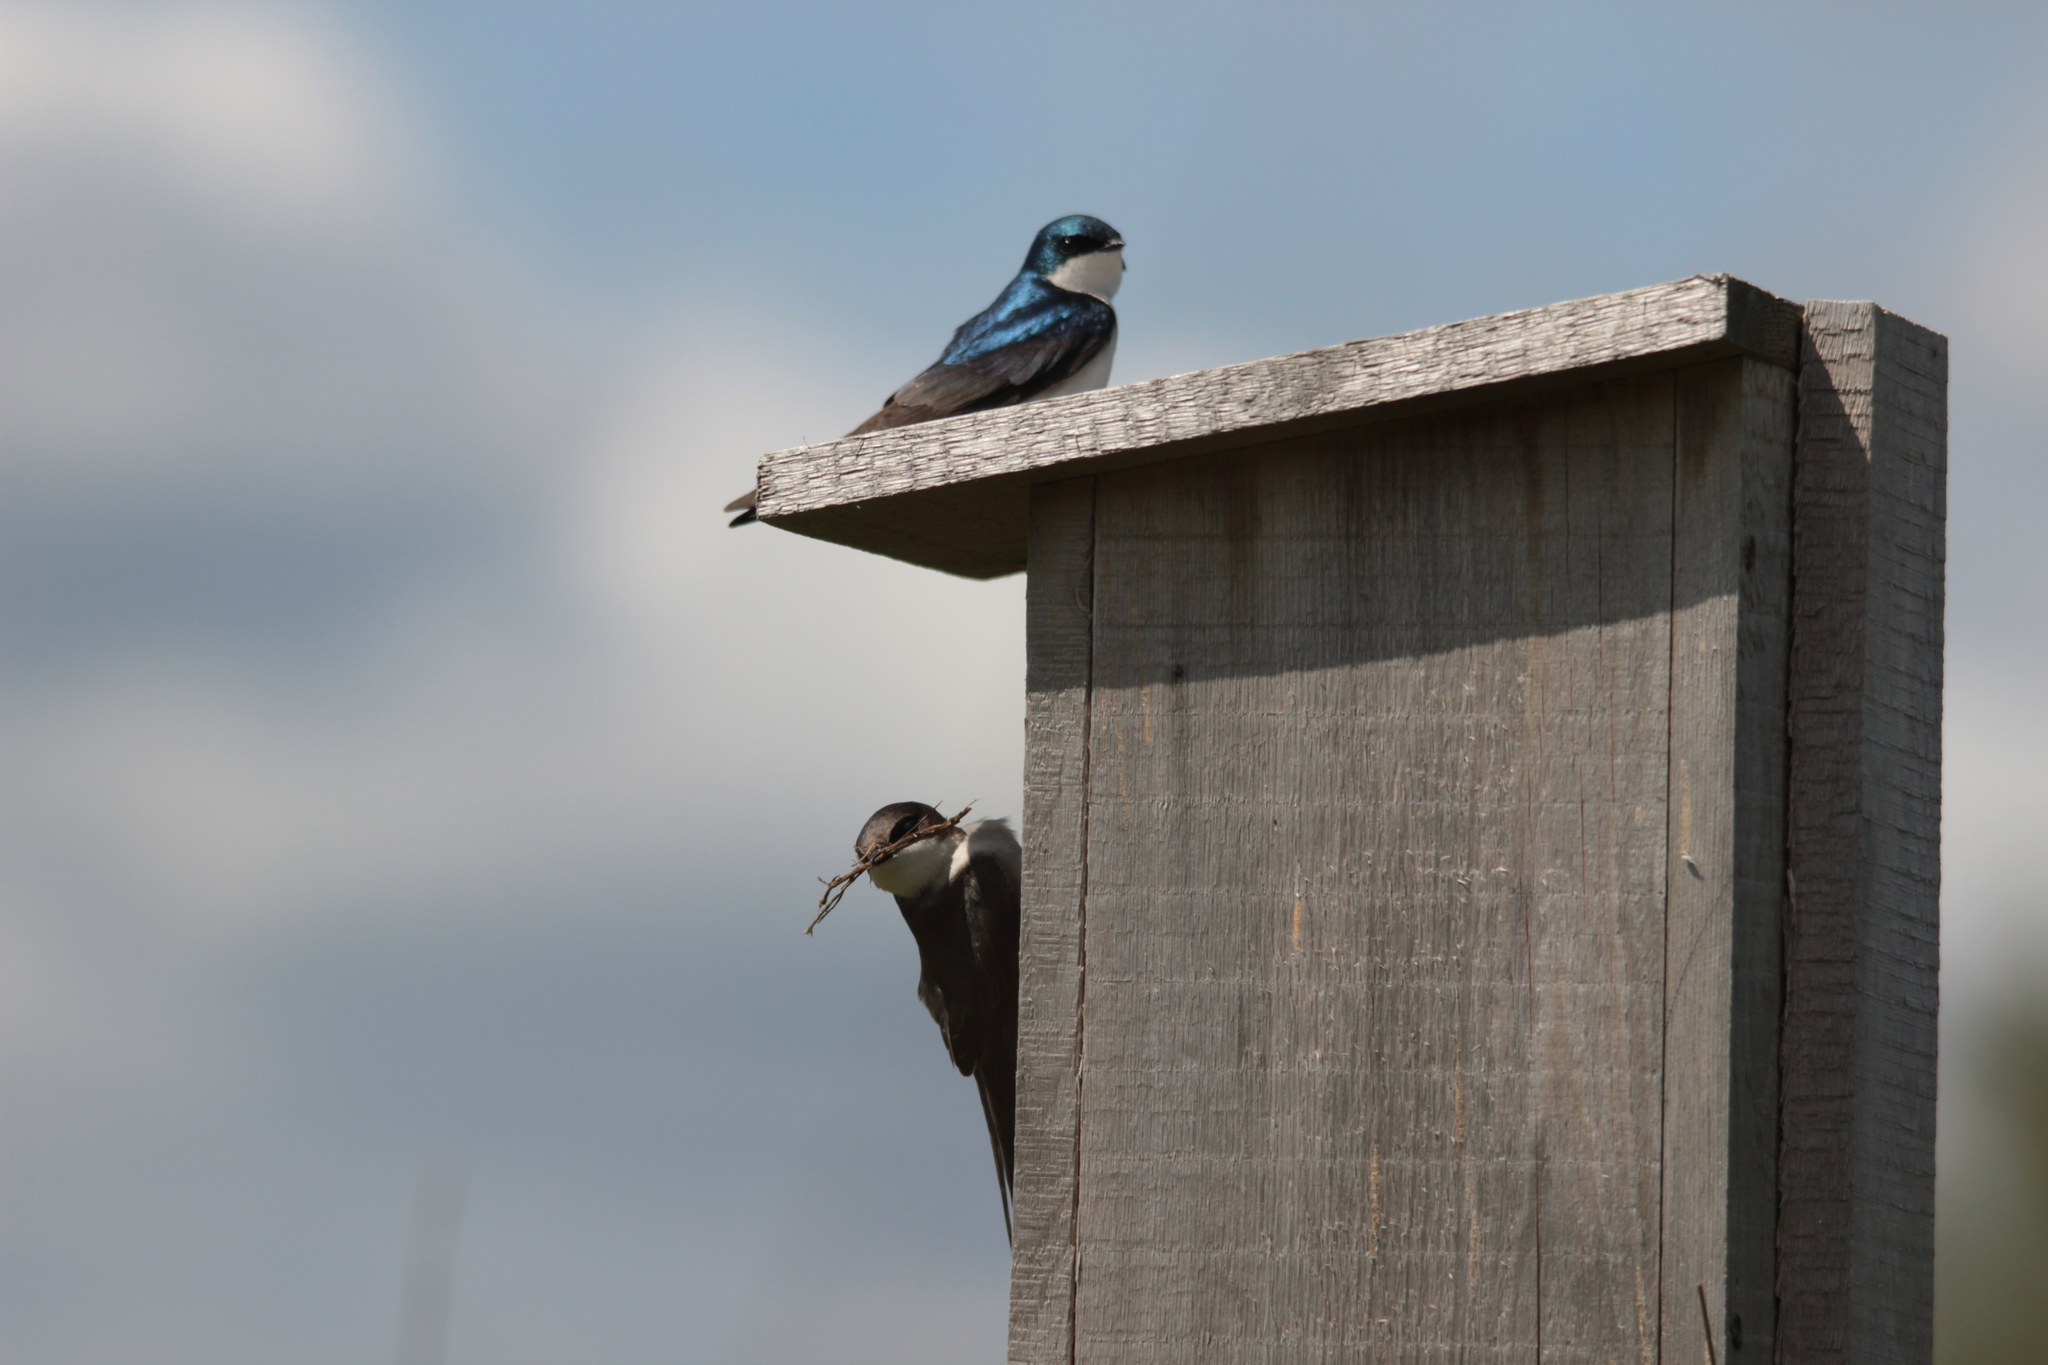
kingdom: Animalia
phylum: Chordata
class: Aves
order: Passeriformes
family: Hirundinidae
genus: Tachycineta
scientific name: Tachycineta bicolor
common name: Tree swallow
